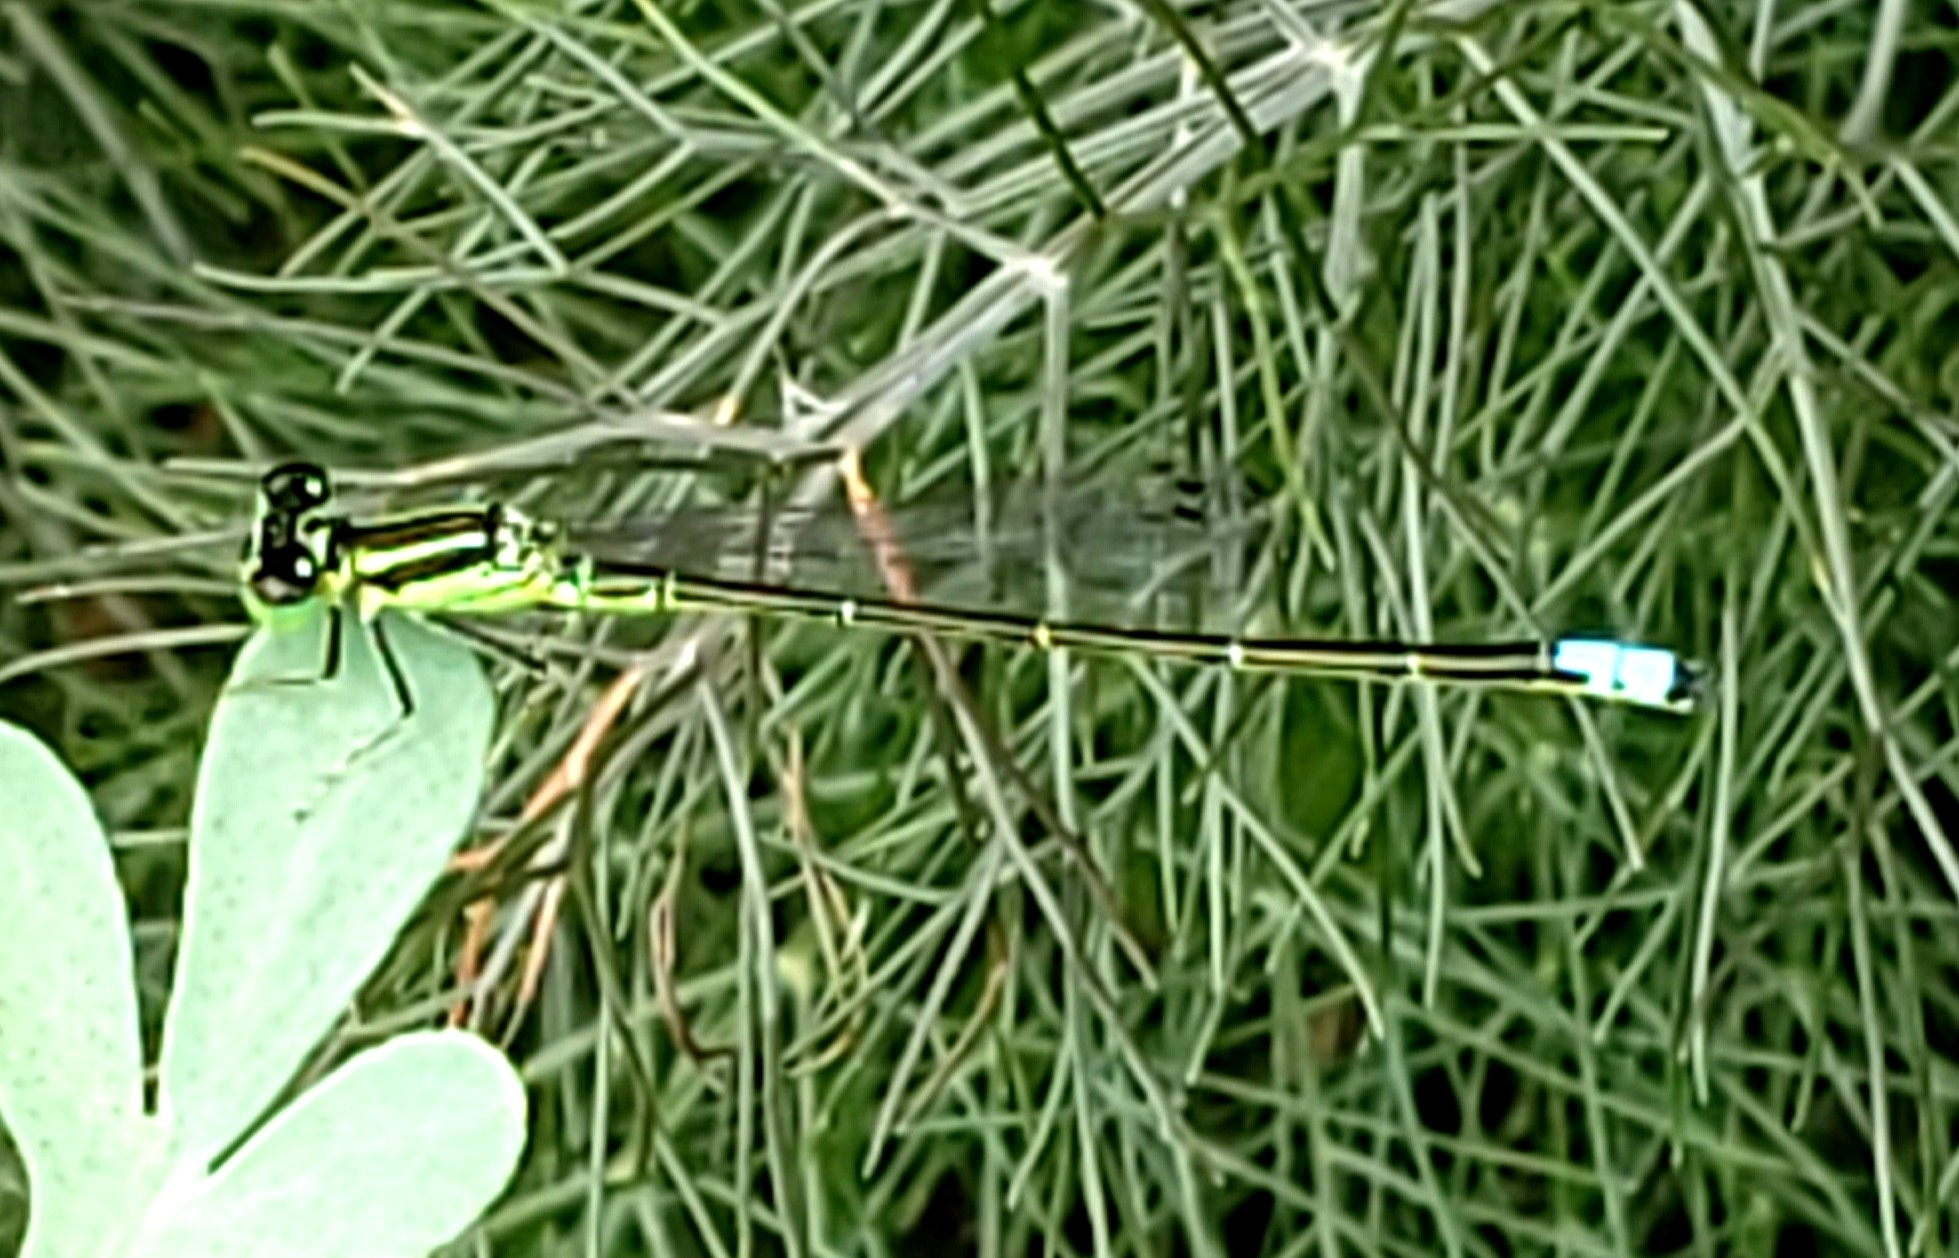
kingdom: Animalia
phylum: Arthropoda
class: Insecta
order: Odonata
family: Coenagrionidae
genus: Ischnura
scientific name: Ischnura verticalis
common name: Eastern forktail
